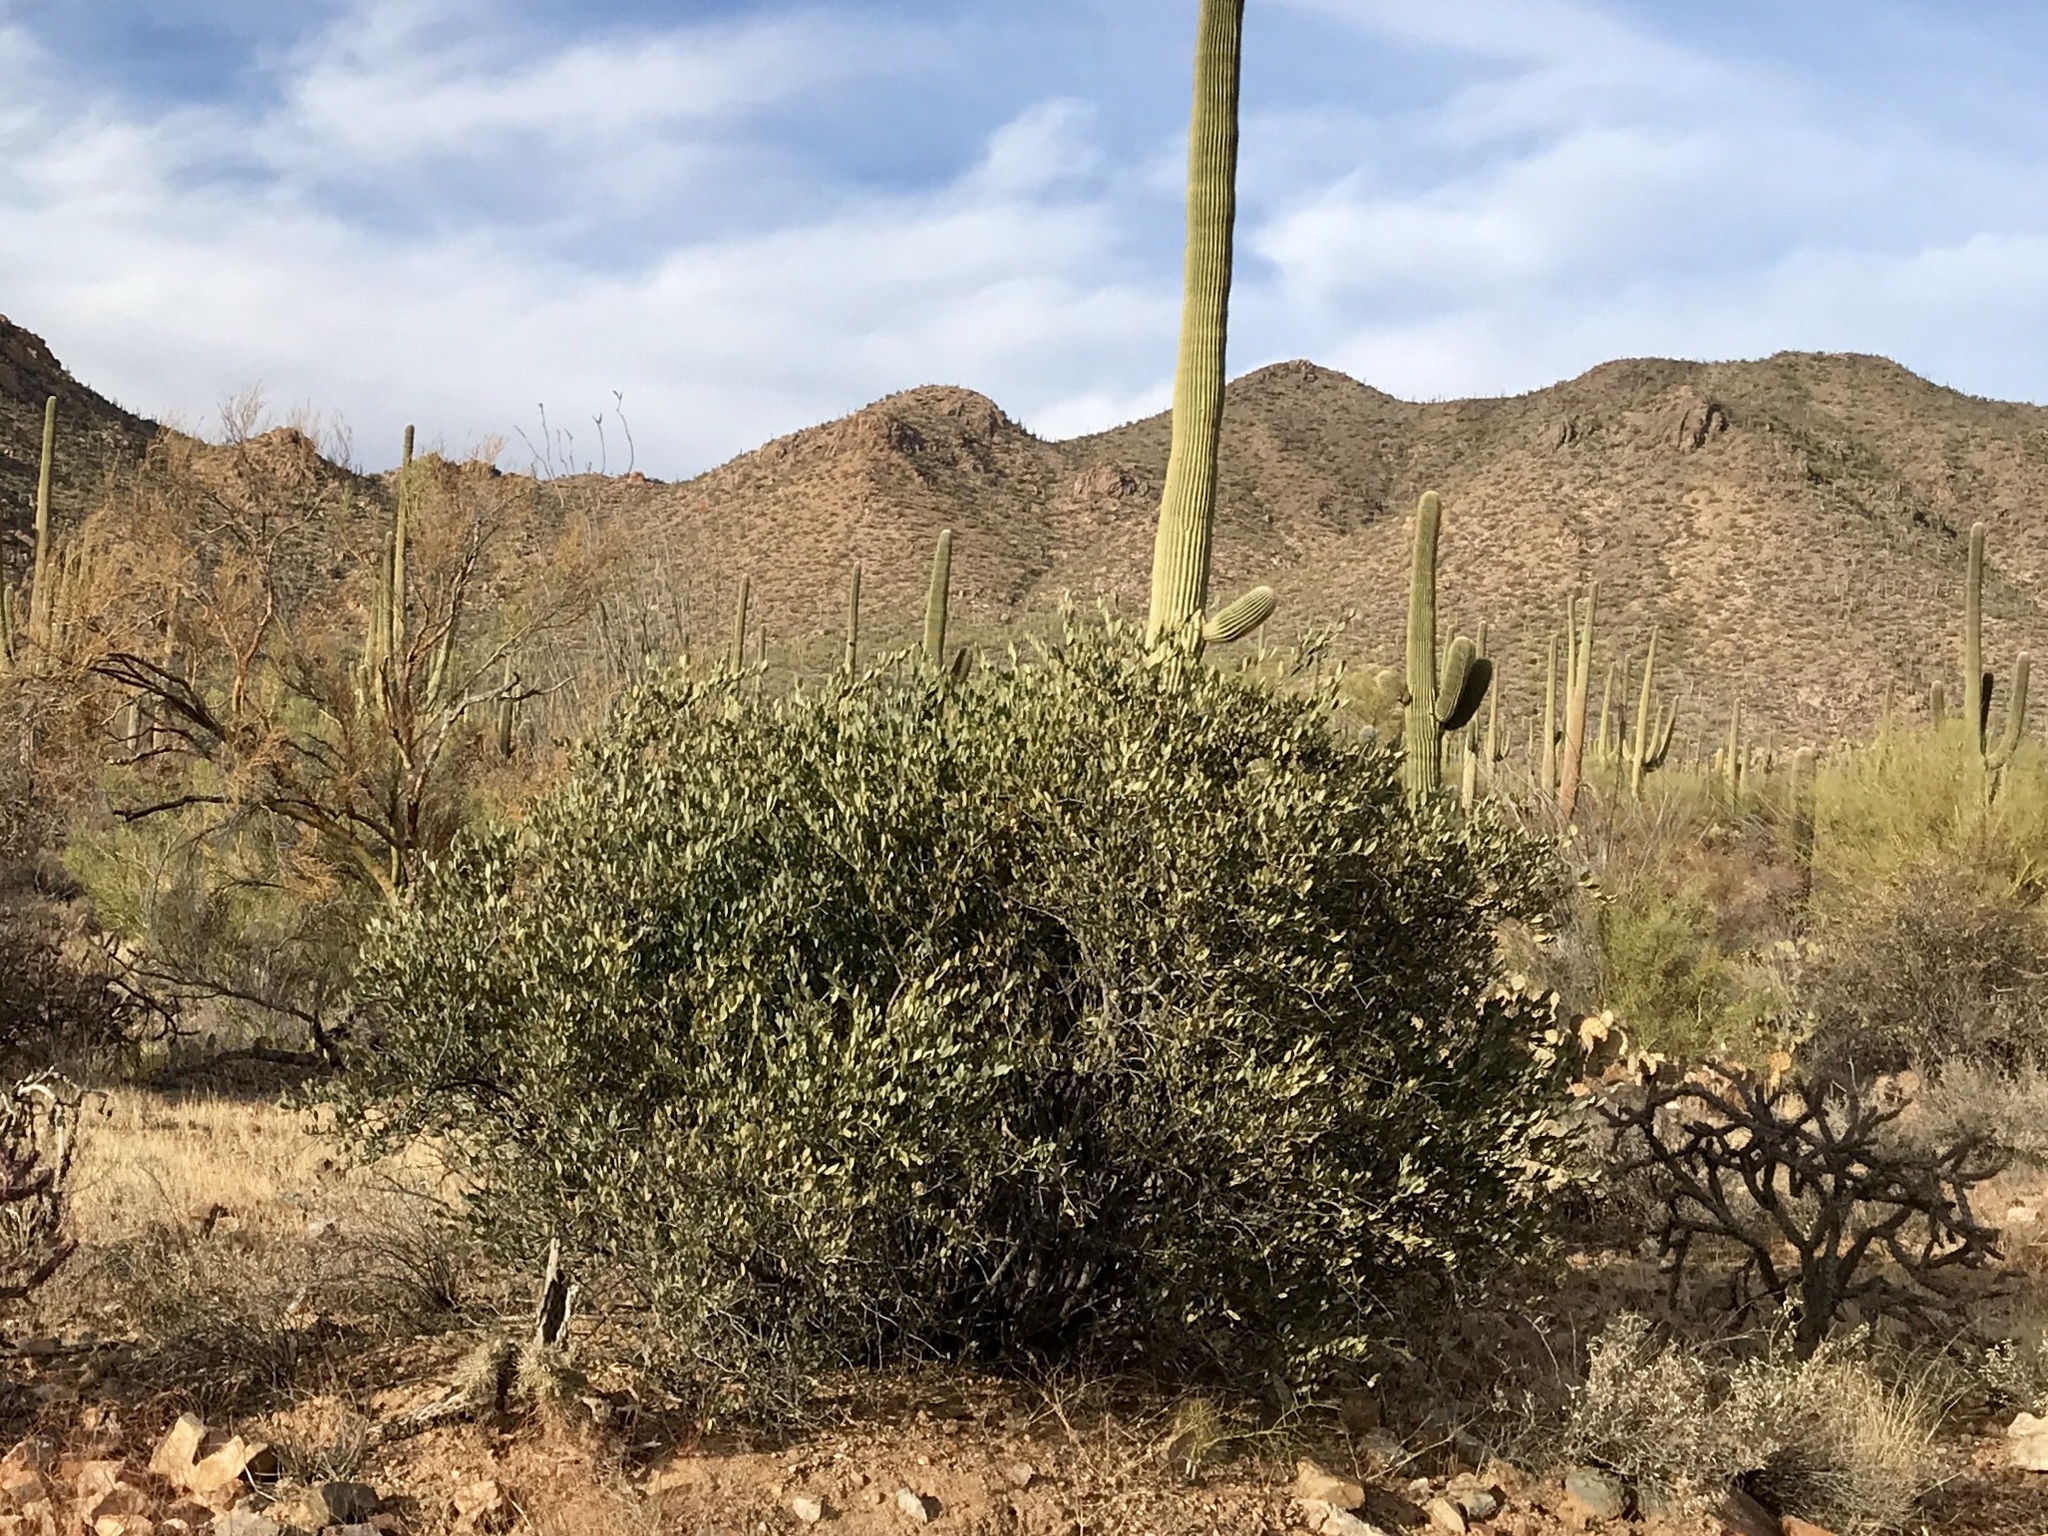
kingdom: Plantae
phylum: Tracheophyta
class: Magnoliopsida
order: Caryophyllales
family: Simmondsiaceae
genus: Simmondsia
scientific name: Simmondsia chinensis
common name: Jojoba
